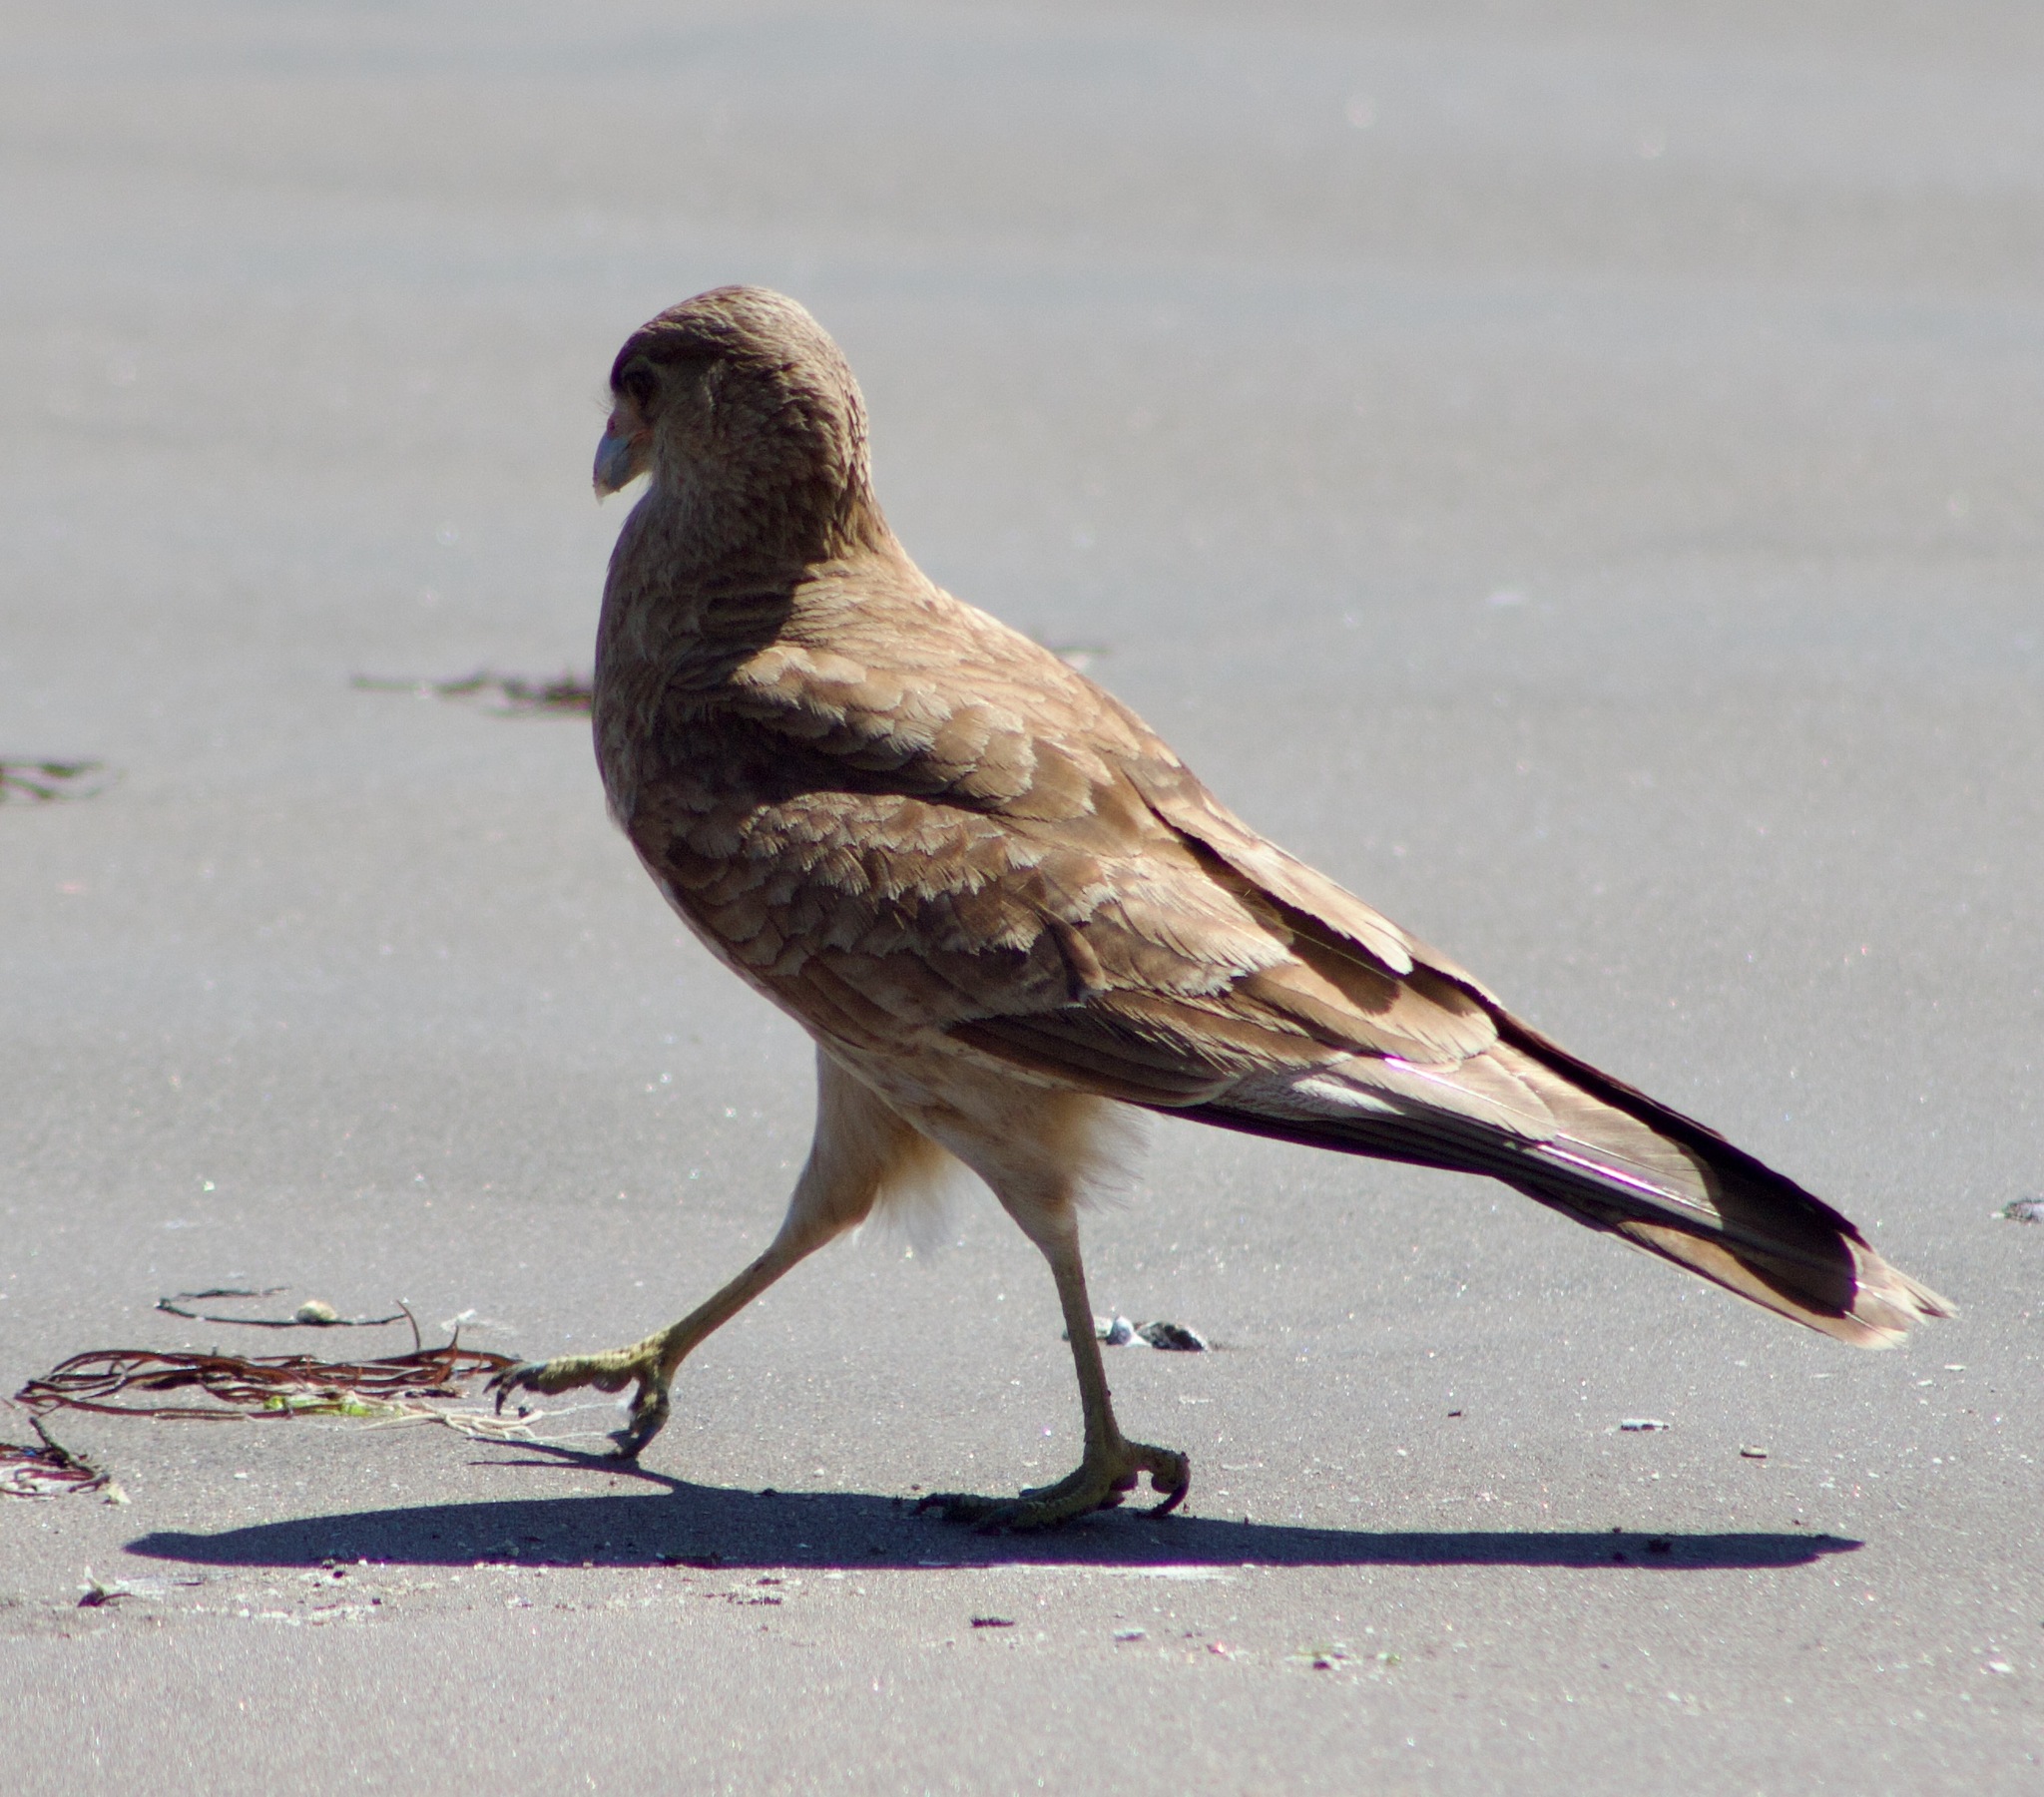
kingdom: Animalia
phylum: Chordata
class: Aves
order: Falconiformes
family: Falconidae
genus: Daptrius
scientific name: Daptrius
